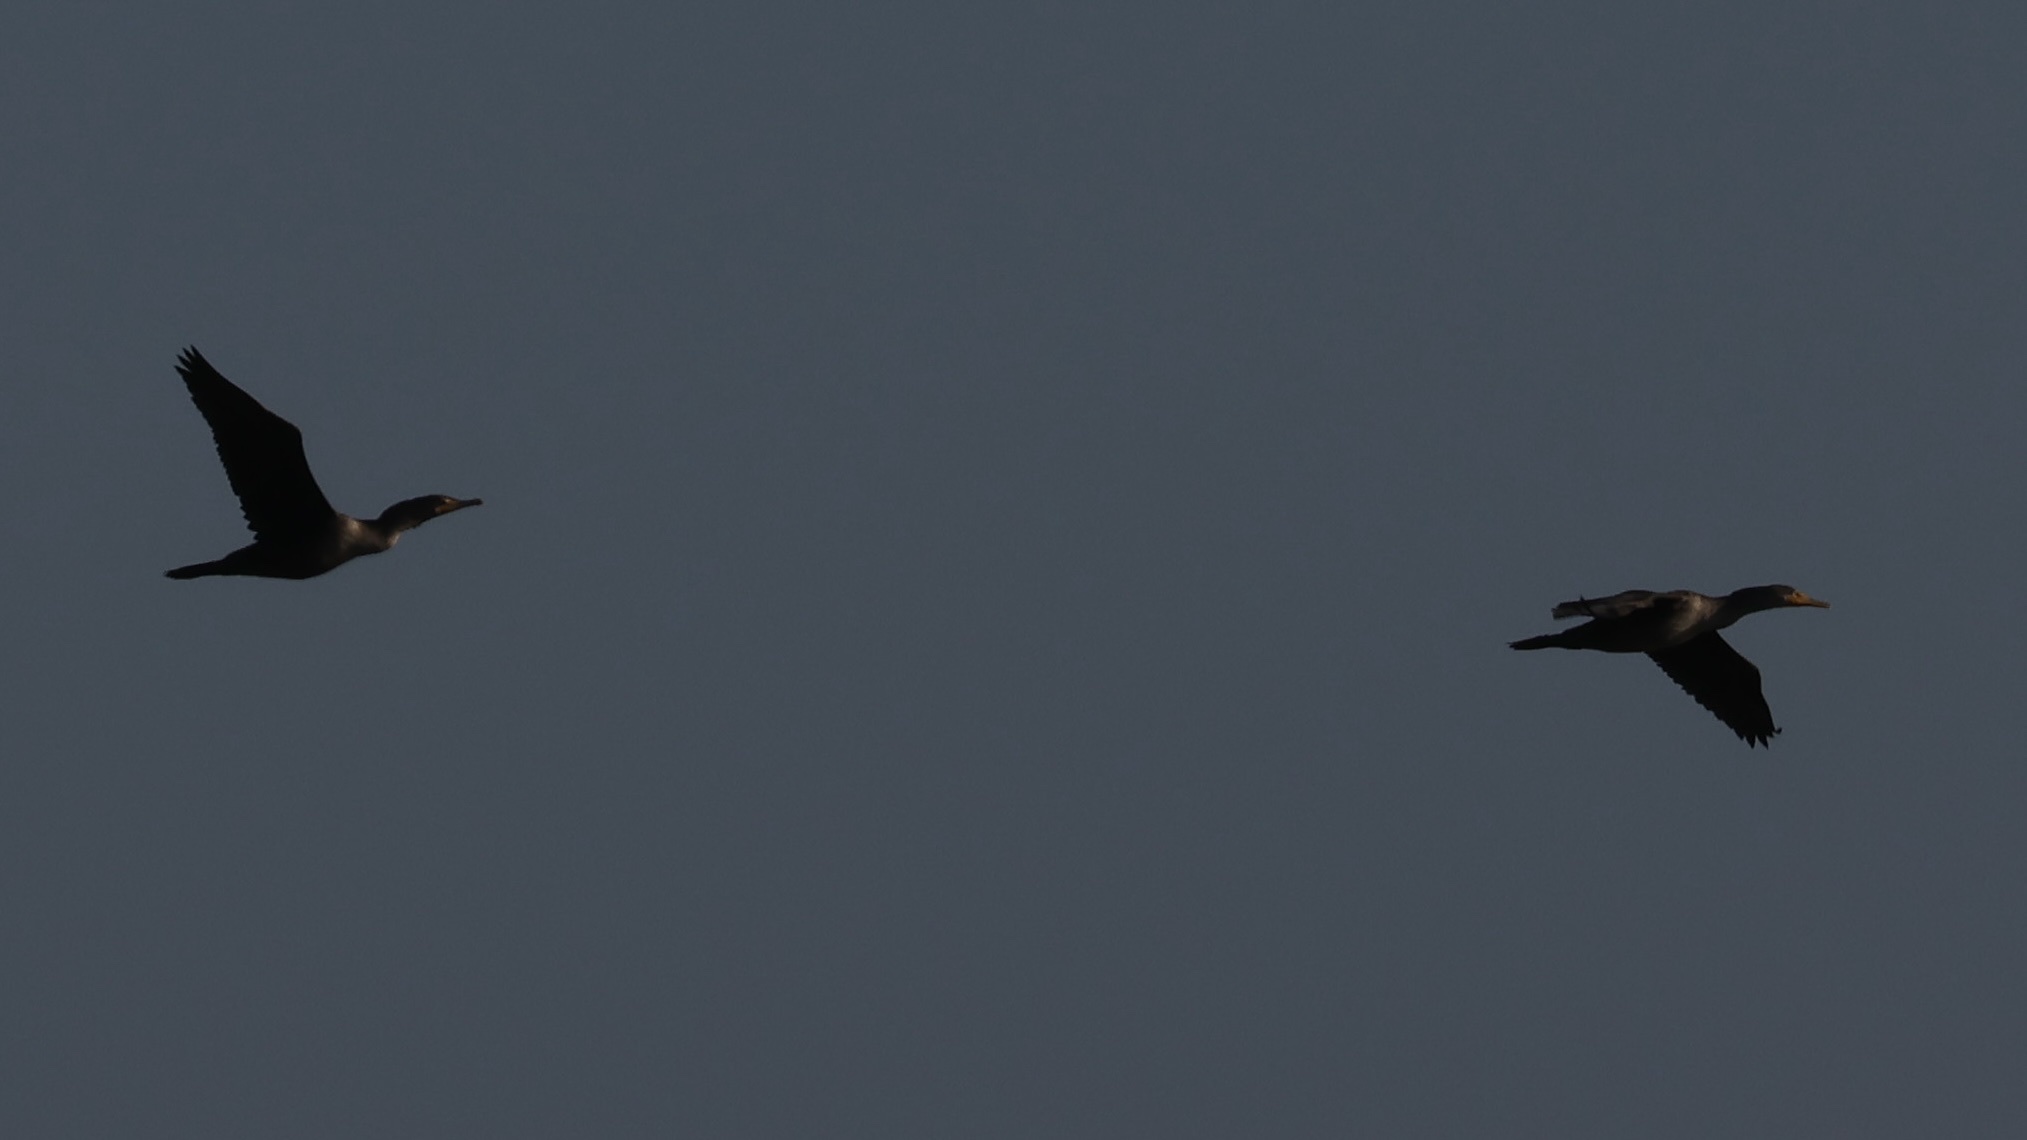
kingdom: Animalia
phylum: Chordata
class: Aves
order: Suliformes
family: Phalacrocoracidae
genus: Phalacrocorax
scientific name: Phalacrocorax auritus
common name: Double-crested cormorant
